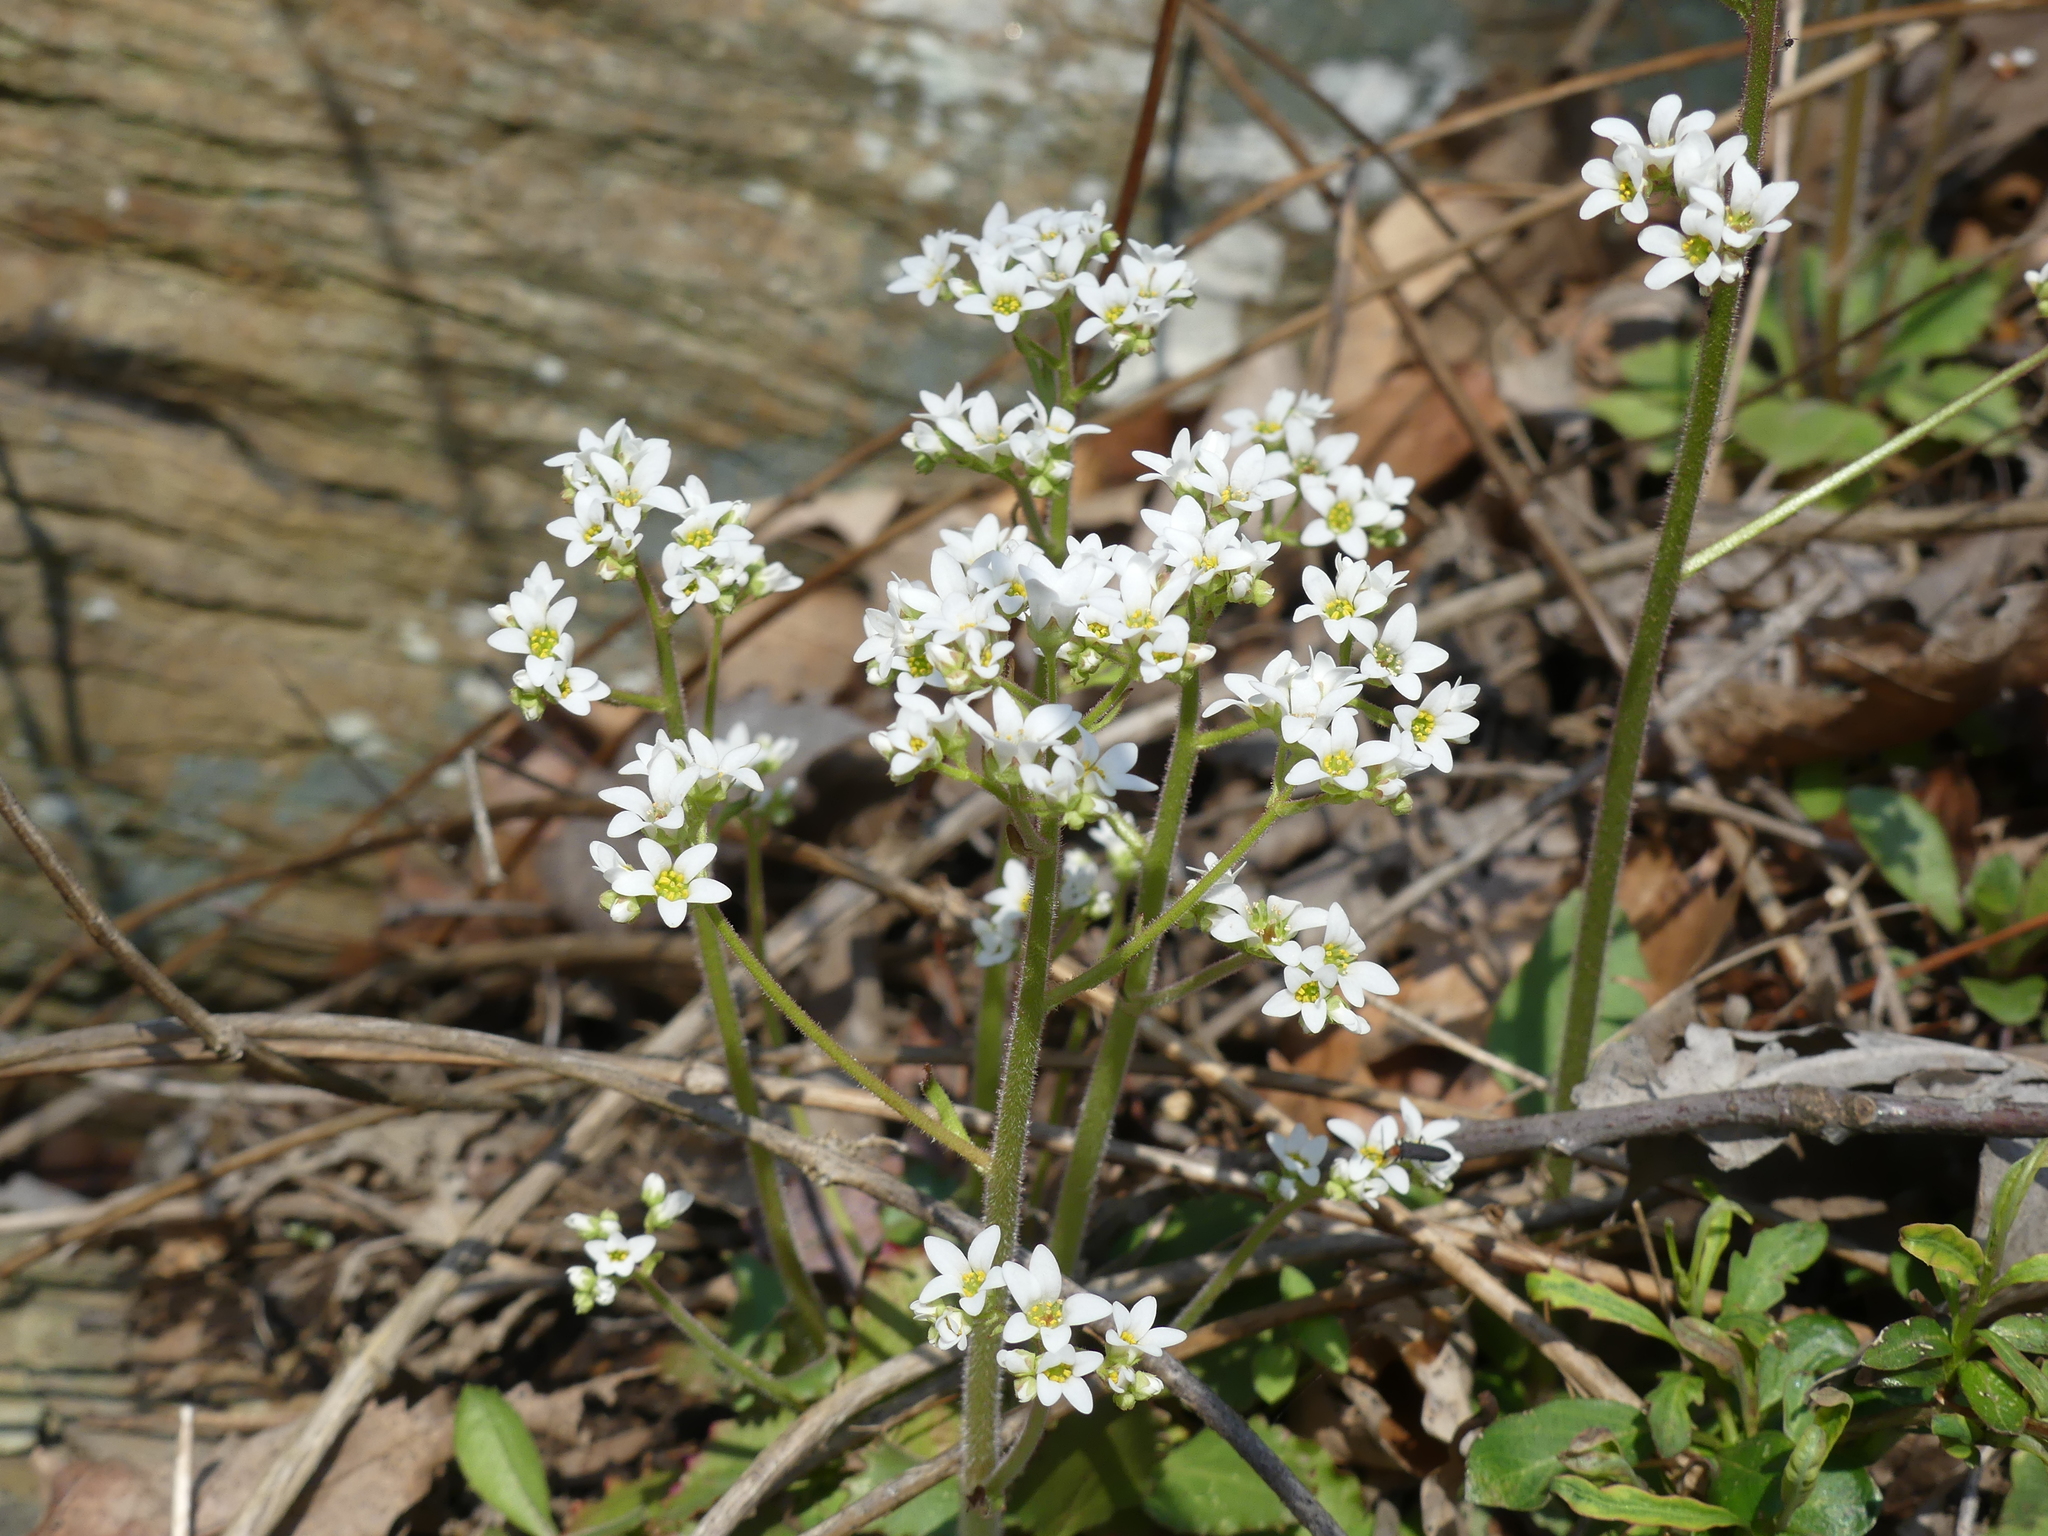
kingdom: Plantae
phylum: Tracheophyta
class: Magnoliopsida
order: Saxifragales
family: Saxifragaceae
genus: Micranthes
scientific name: Micranthes virginiensis
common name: Early saxifrage
